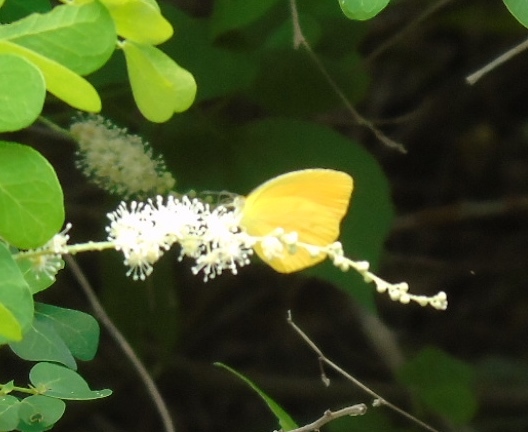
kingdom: Animalia
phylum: Arthropoda
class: Insecta
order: Lepidoptera
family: Pieridae
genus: Eurema
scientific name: Eurema
